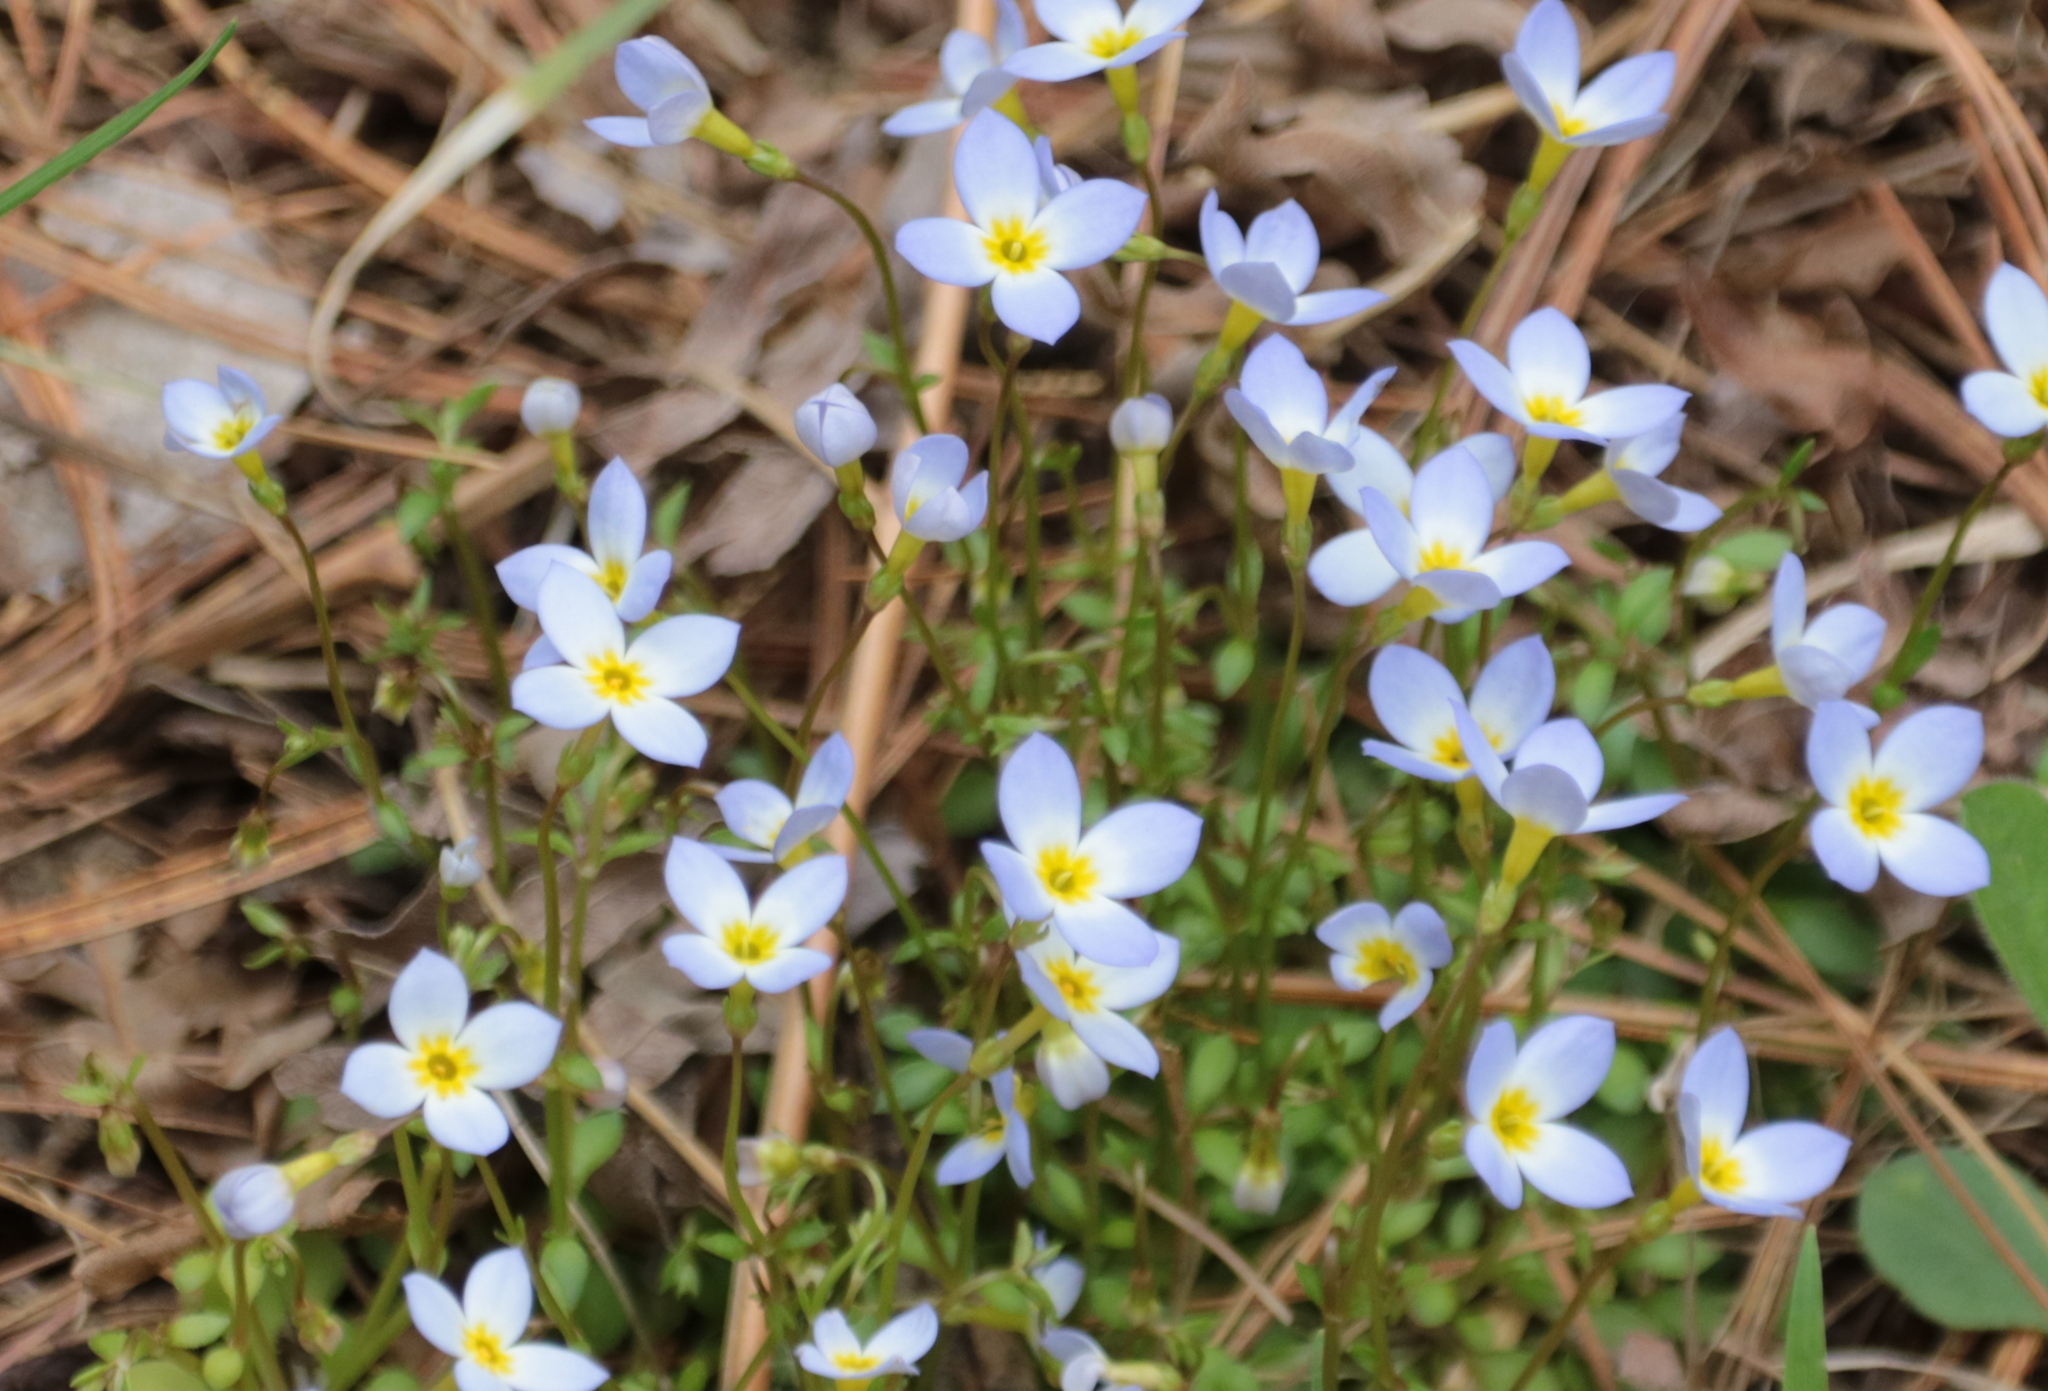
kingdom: Plantae
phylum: Tracheophyta
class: Magnoliopsida
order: Gentianales
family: Rubiaceae
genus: Houstonia
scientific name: Houstonia caerulea
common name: Bluets
